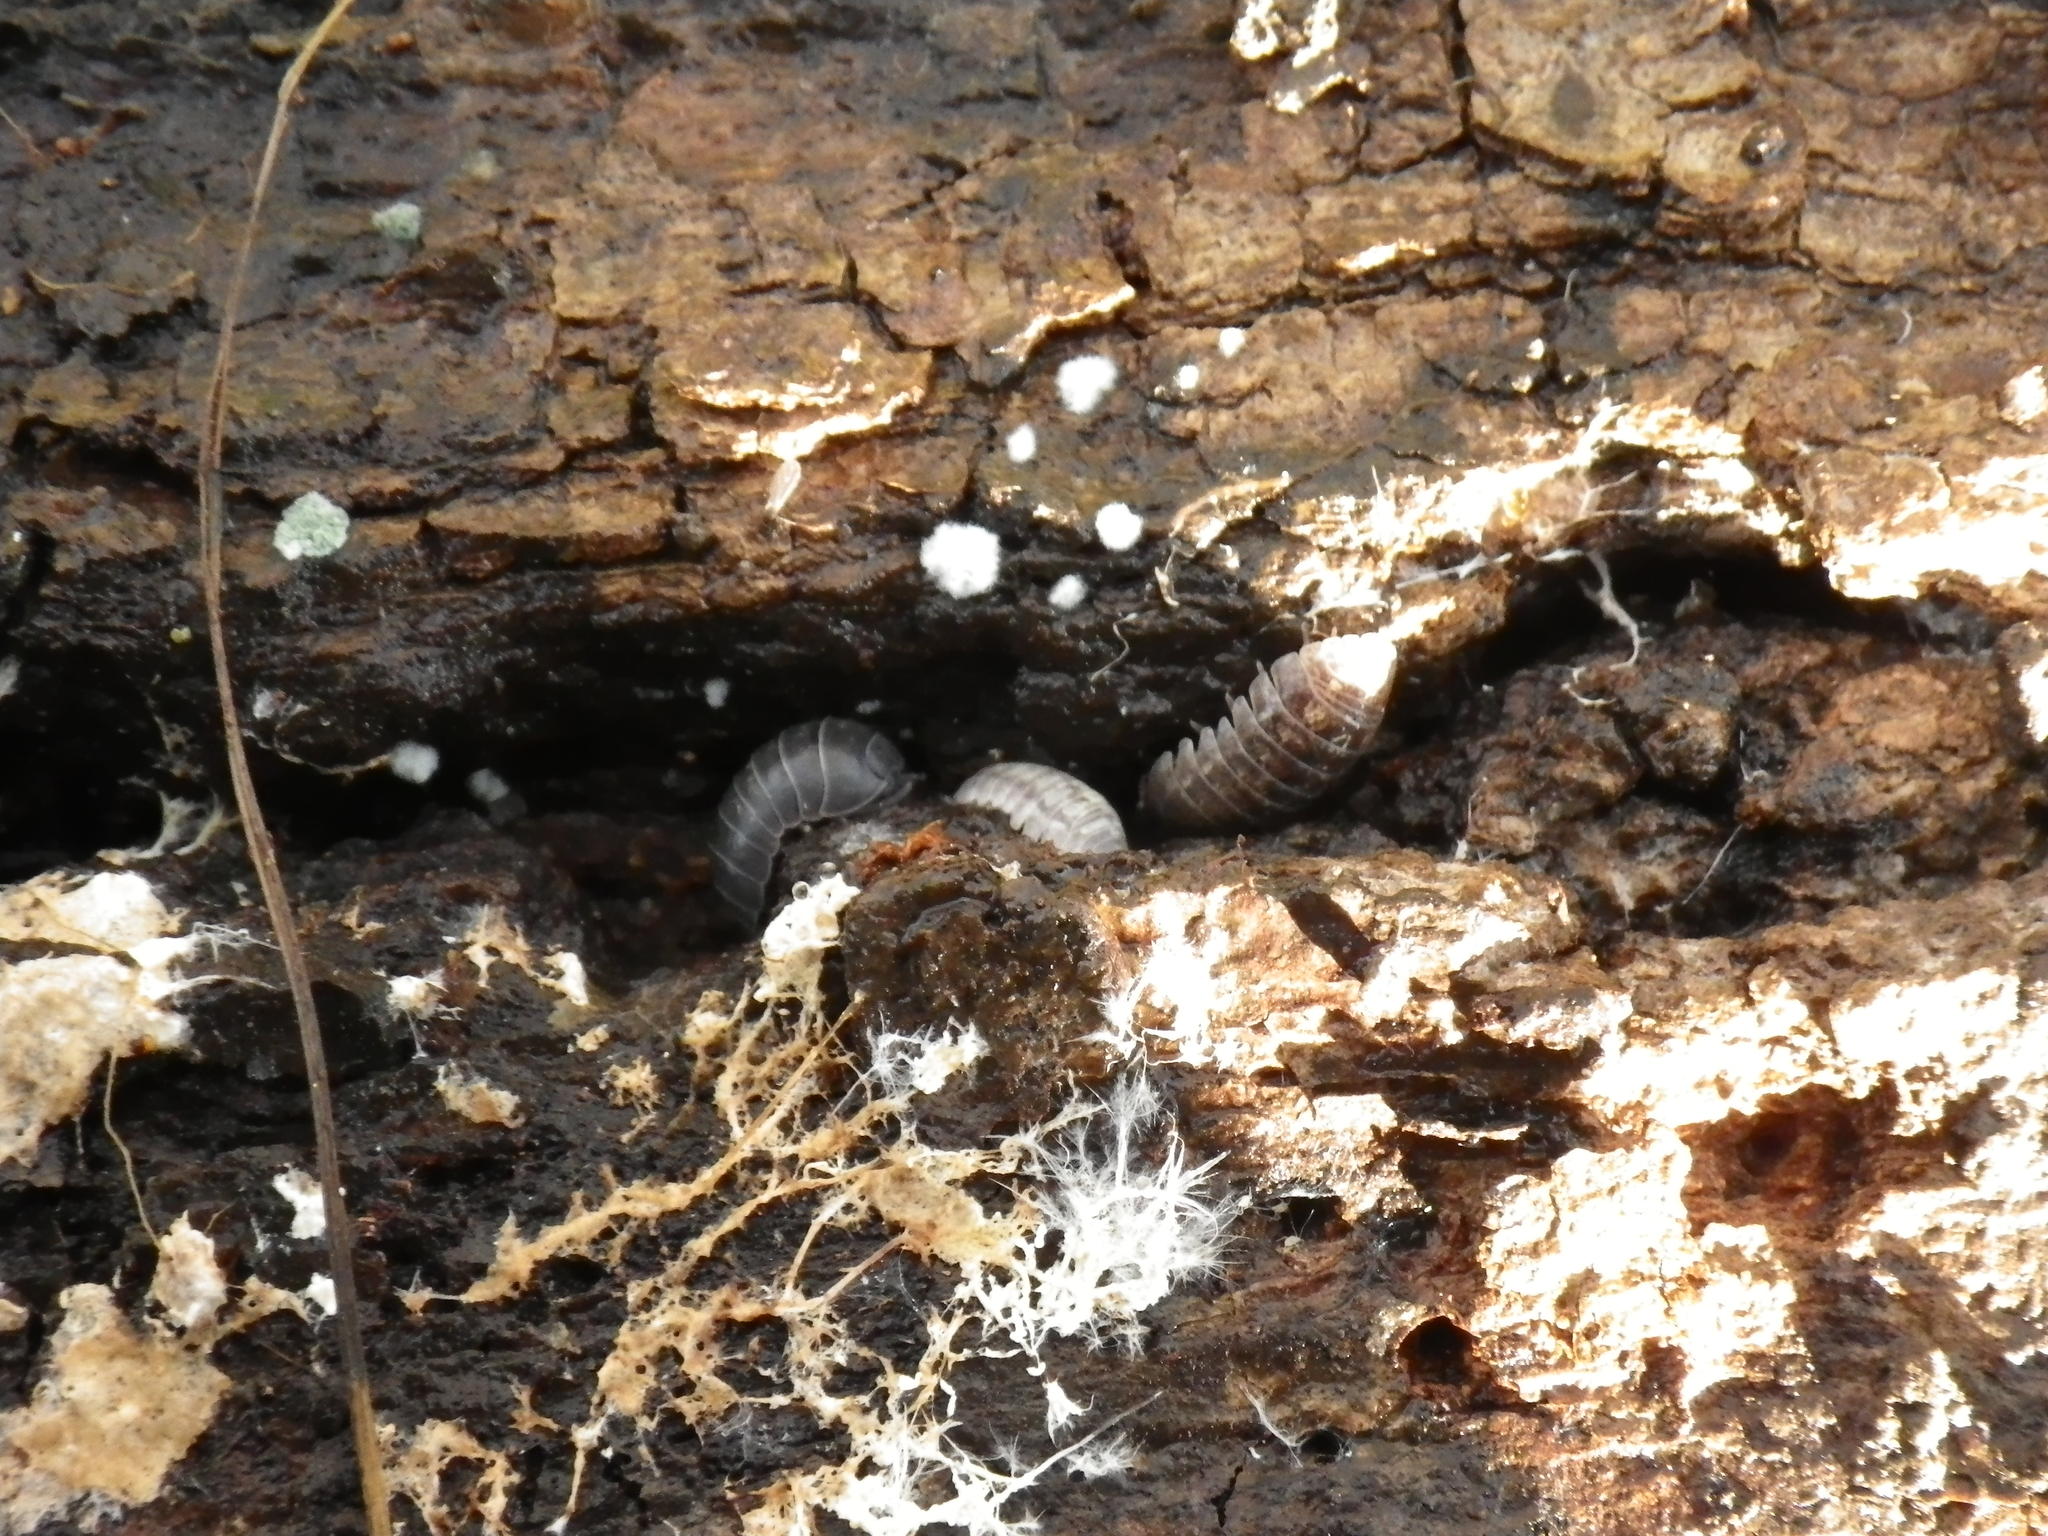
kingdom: Animalia
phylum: Arthropoda
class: Malacostraca
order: Isopoda
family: Armadillidiidae
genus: Armadillidium
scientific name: Armadillidium vulgare
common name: Common pill woodlouse
